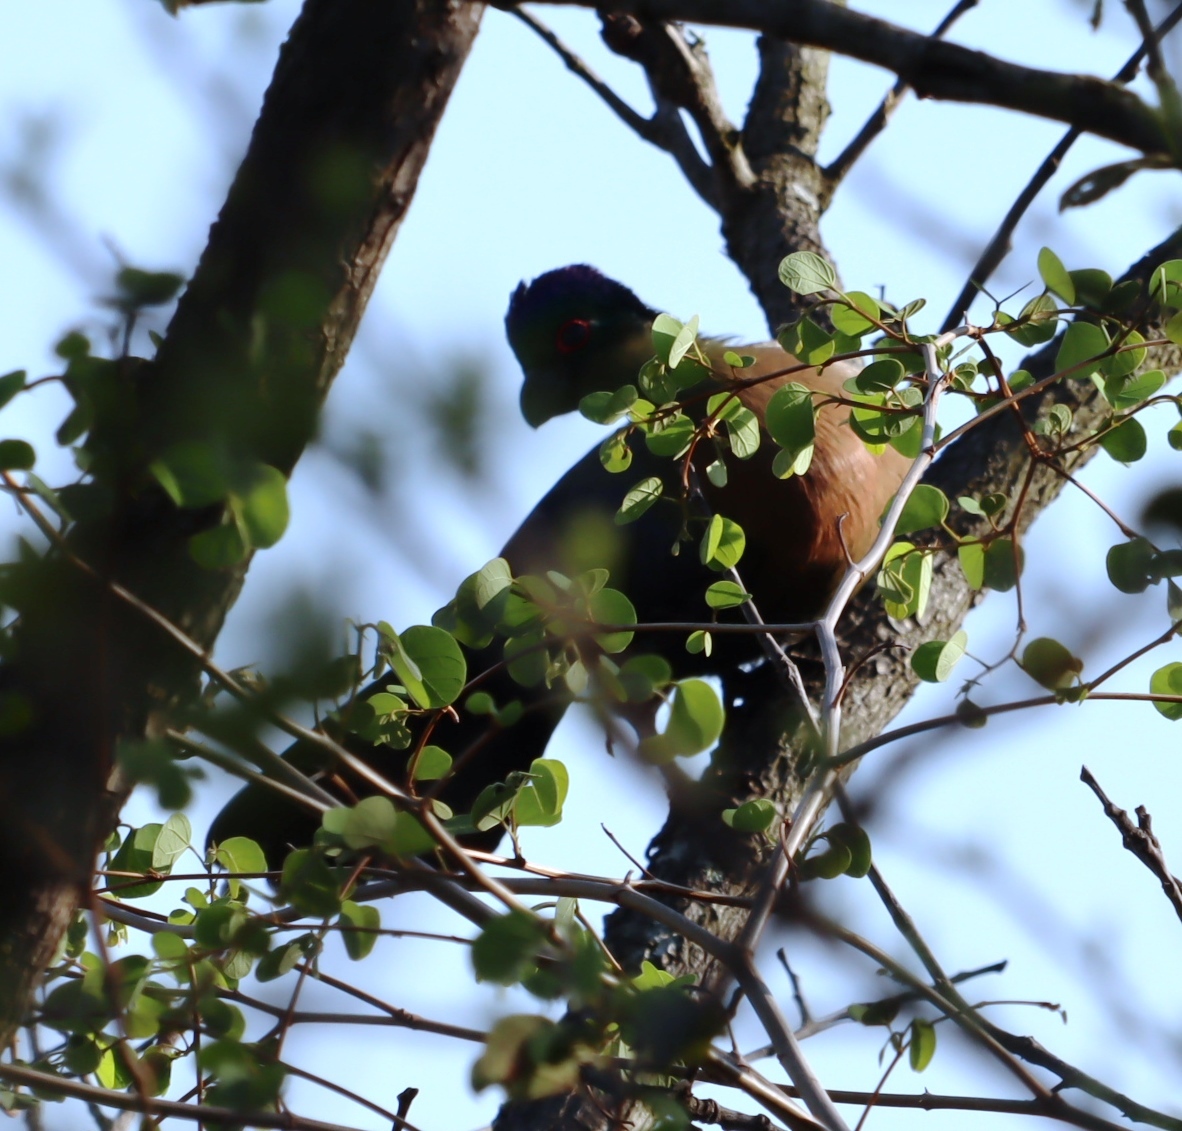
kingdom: Animalia
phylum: Chordata
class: Aves
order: Musophagiformes
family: Musophagidae
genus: Tauraco
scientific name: Tauraco porphyreolophus
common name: Purple-crested turaco
